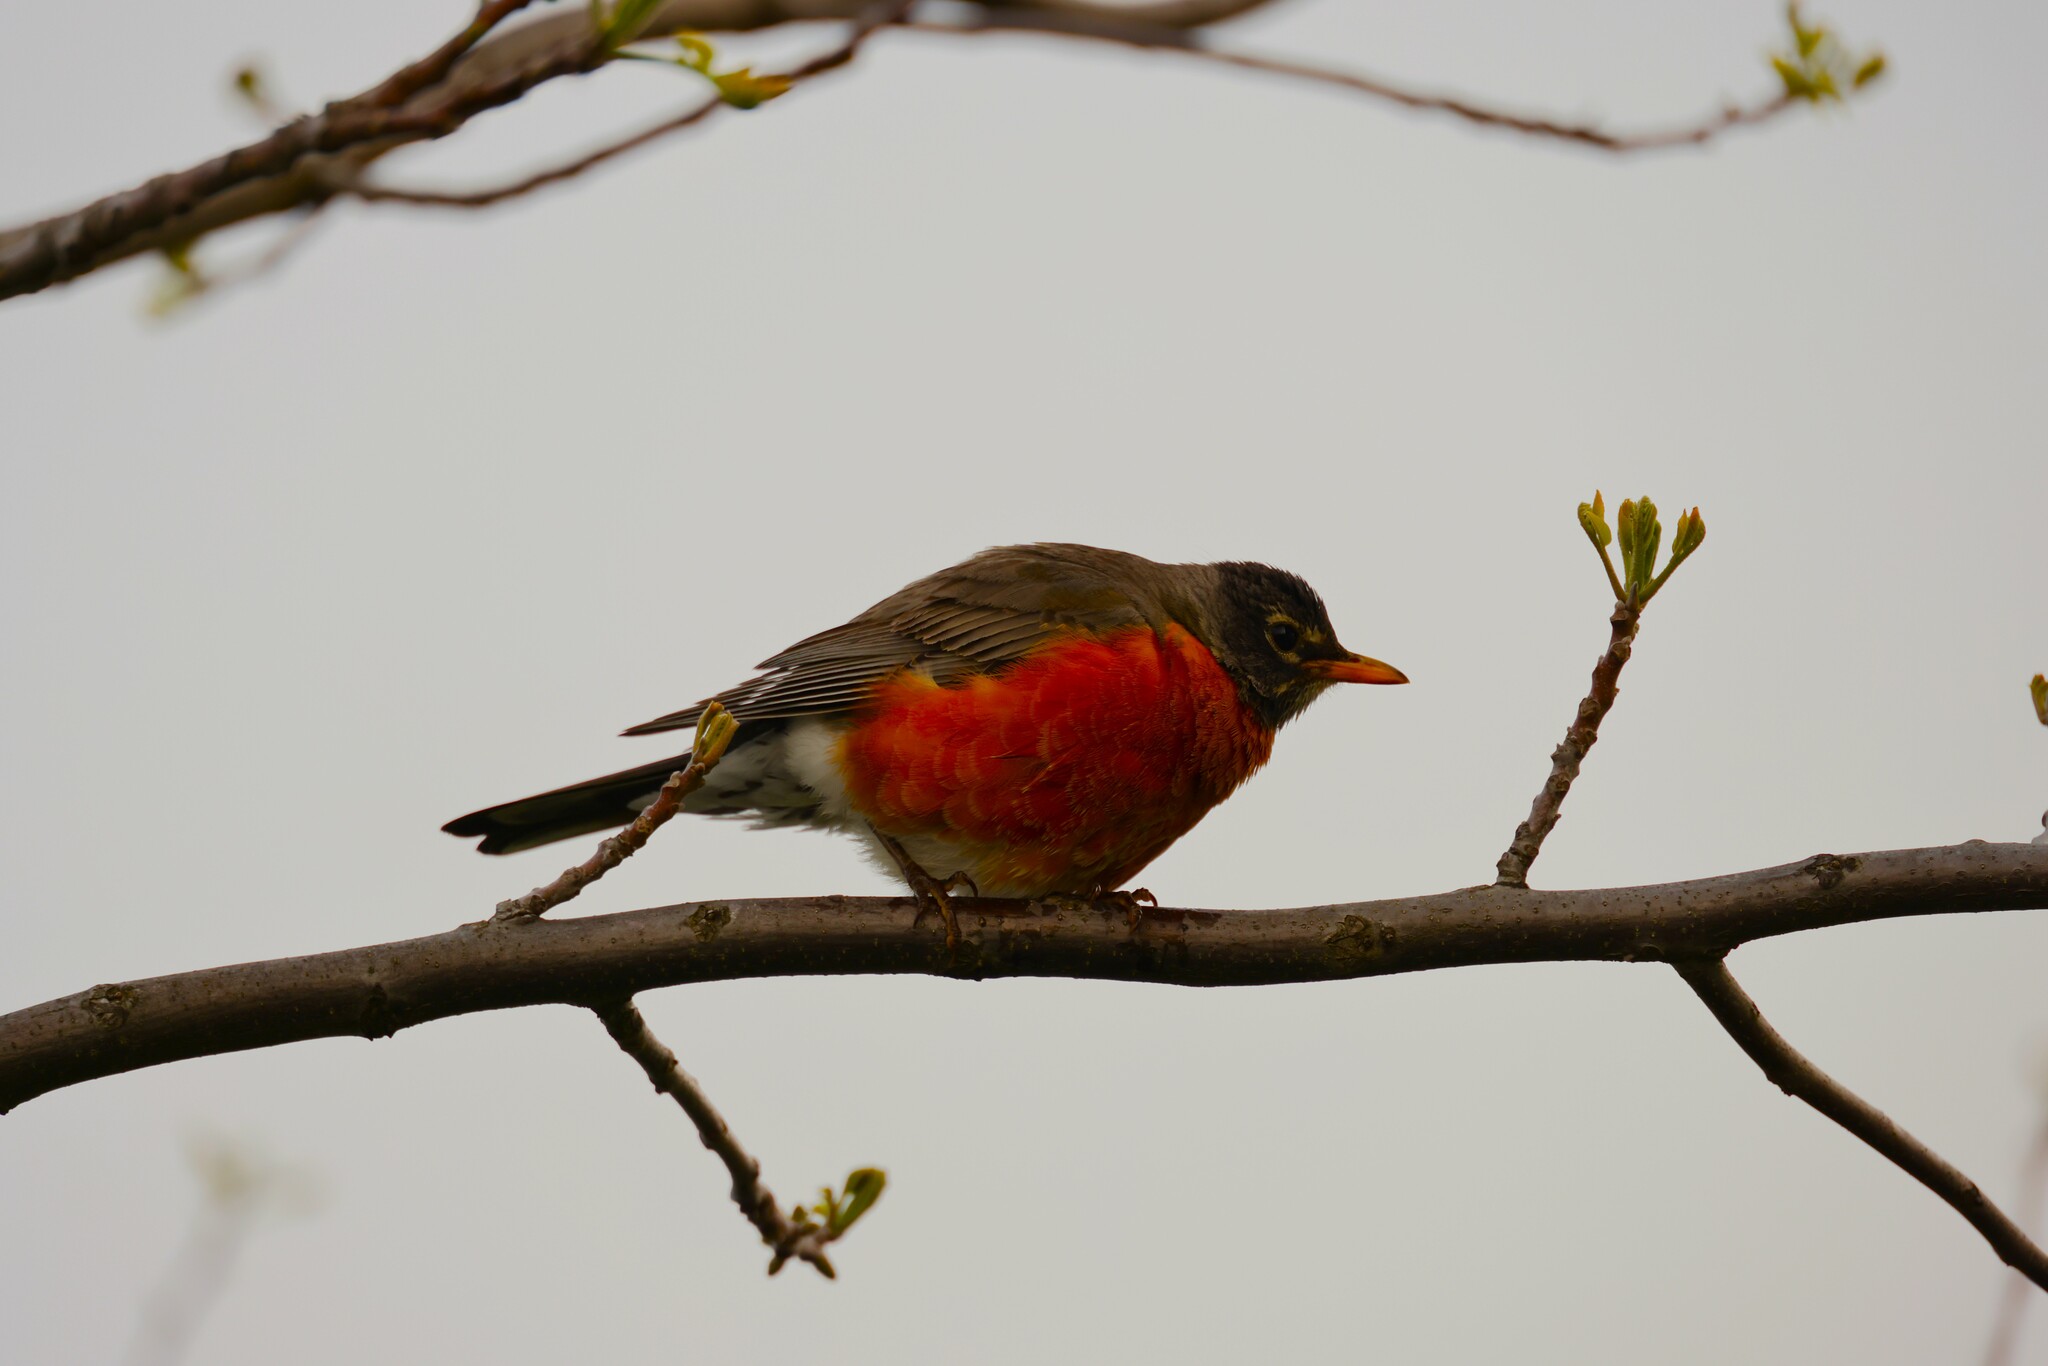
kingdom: Animalia
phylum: Chordata
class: Aves
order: Passeriformes
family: Turdidae
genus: Turdus
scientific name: Turdus migratorius
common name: American robin
